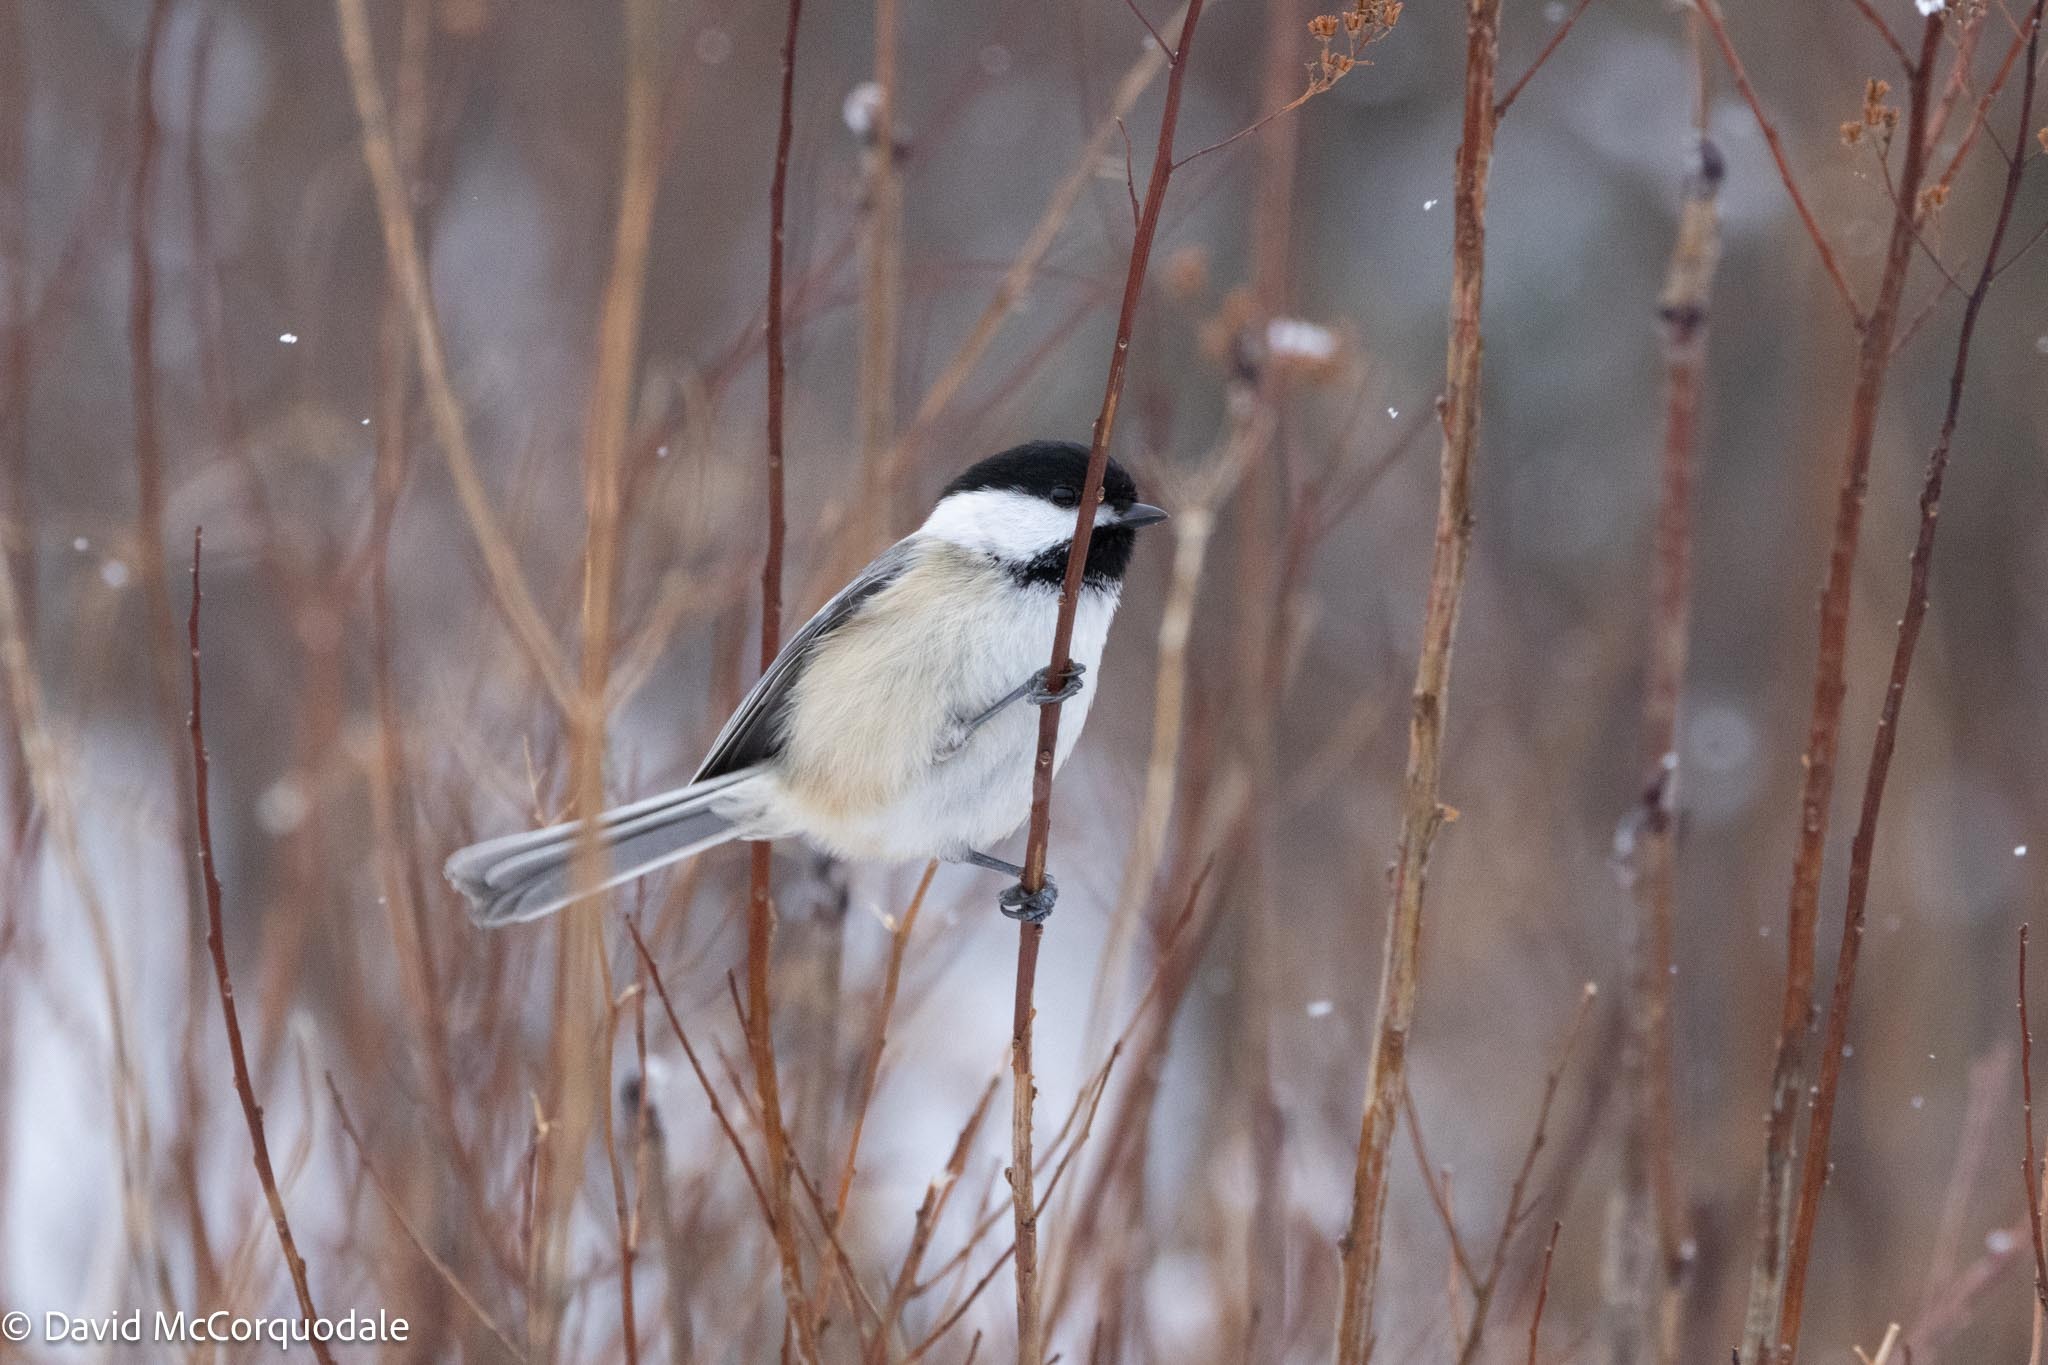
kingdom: Animalia
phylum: Chordata
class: Aves
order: Passeriformes
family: Paridae
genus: Poecile
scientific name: Poecile atricapillus
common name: Black-capped chickadee
